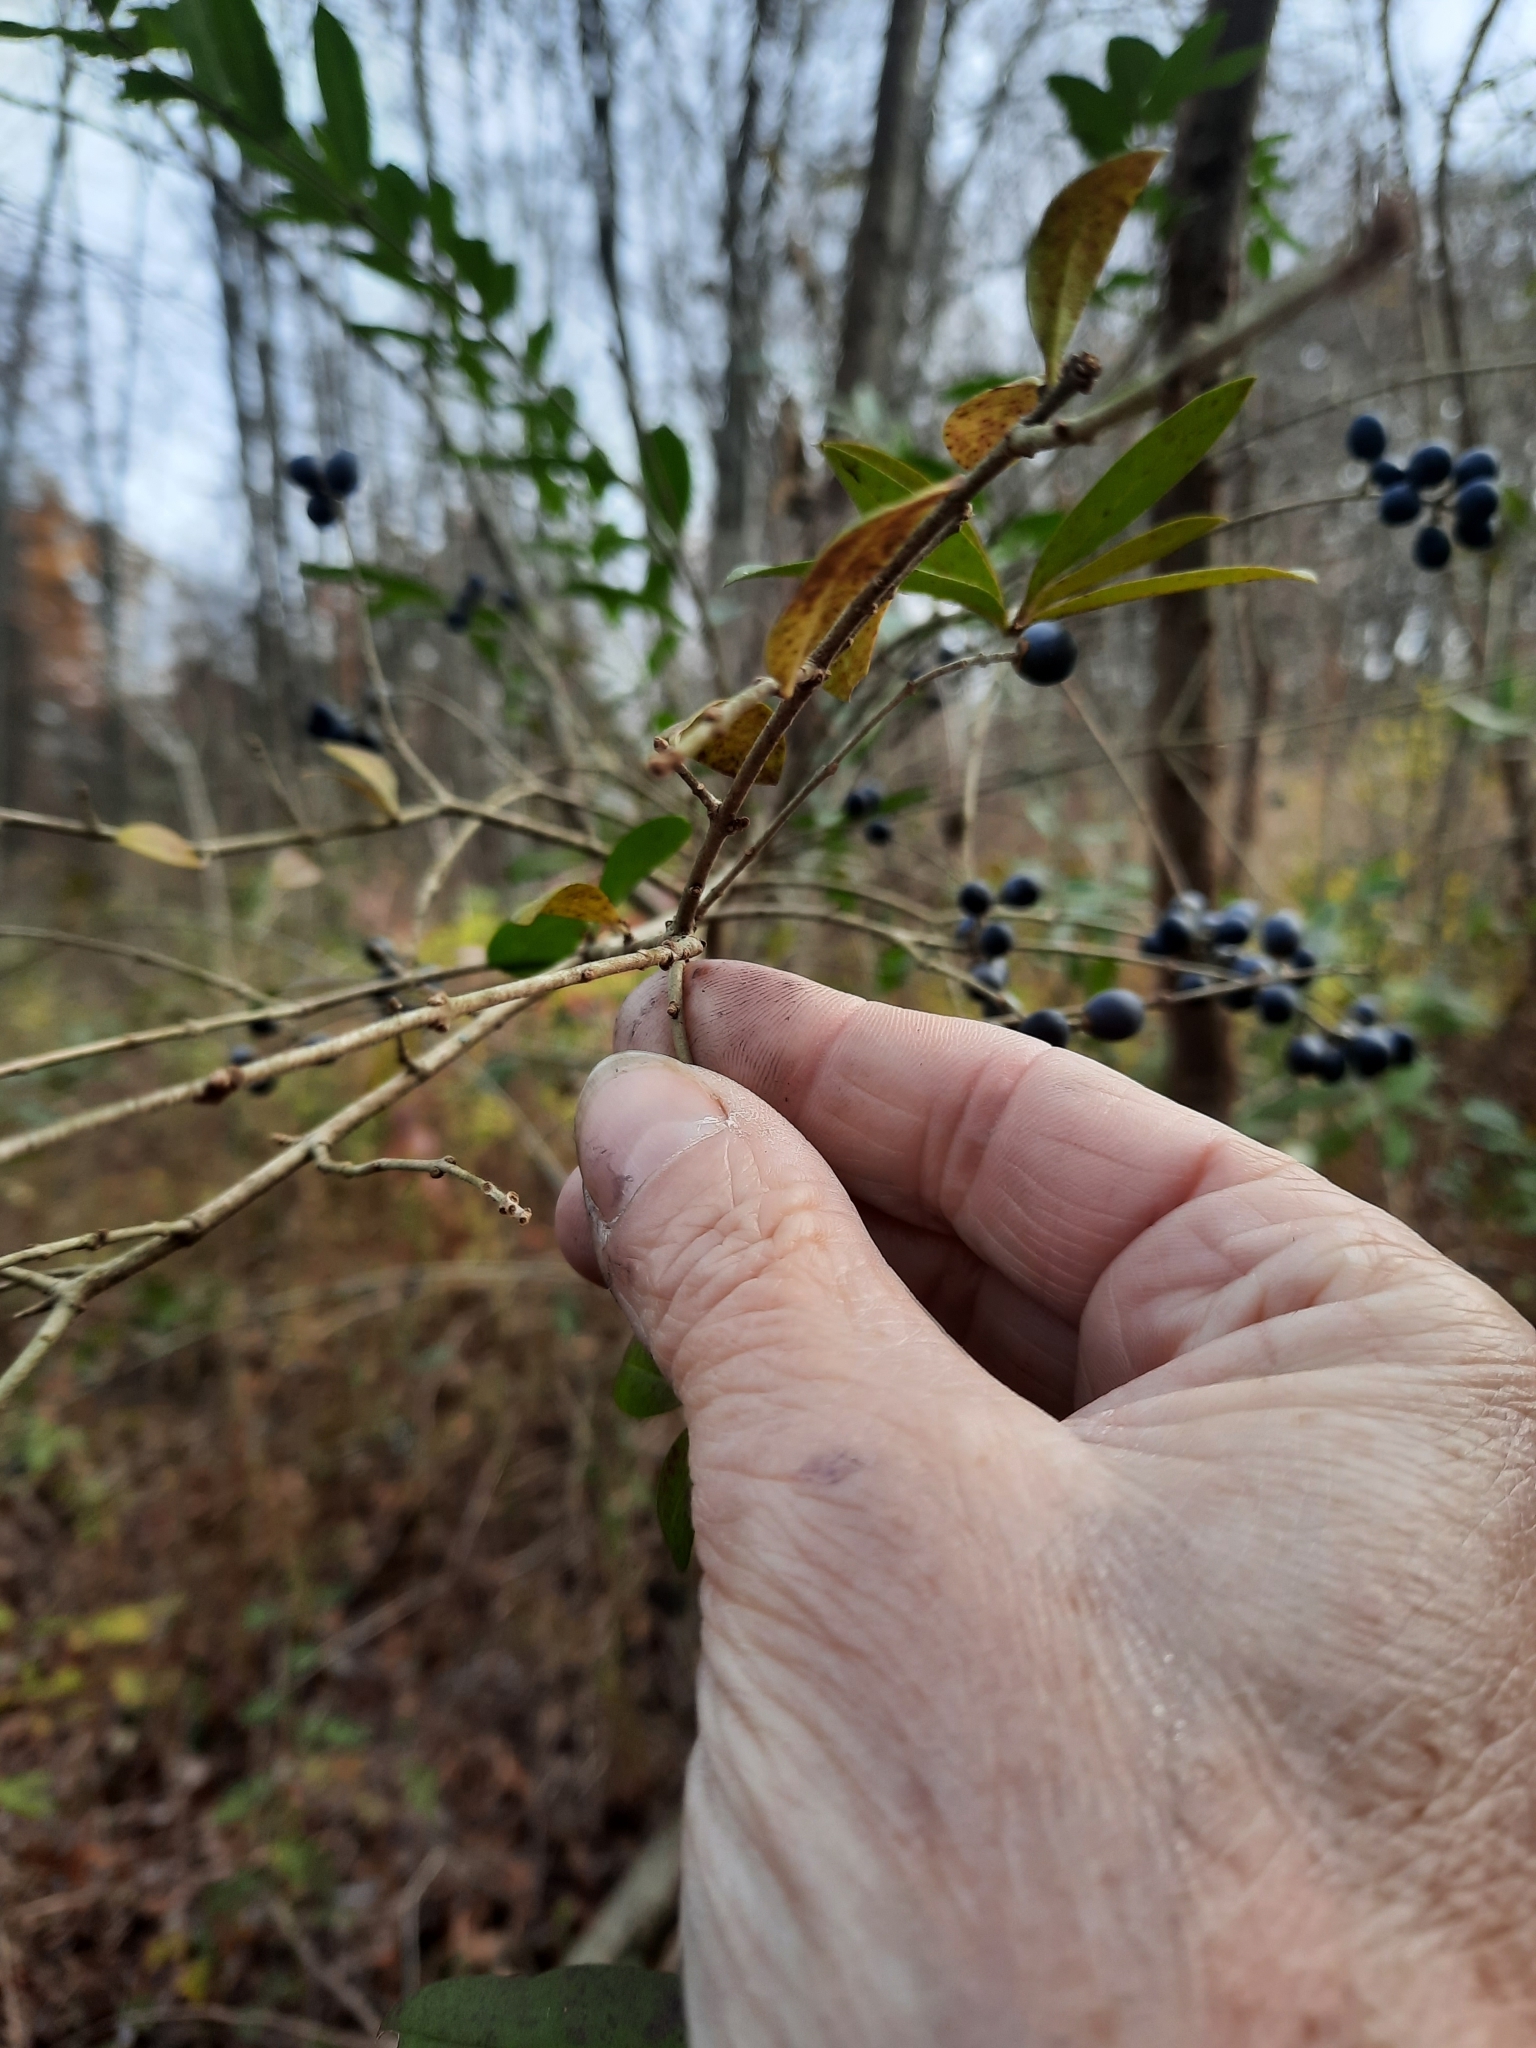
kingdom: Plantae
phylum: Tracheophyta
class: Magnoliopsida
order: Lamiales
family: Oleaceae
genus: Ligustrum
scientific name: Ligustrum obtusifolium
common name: Border privet
